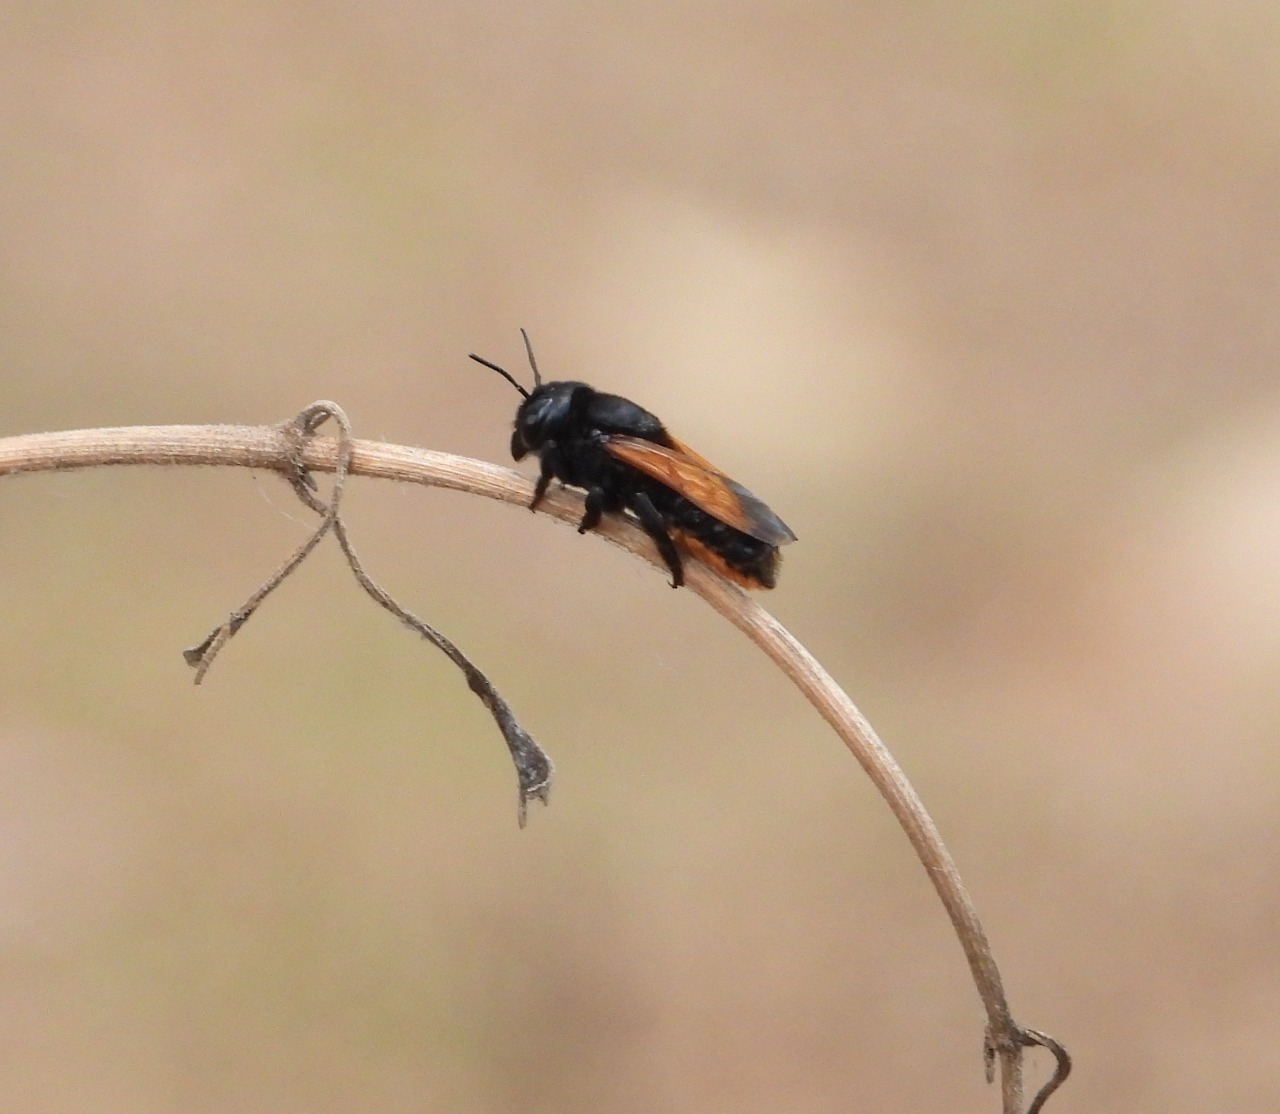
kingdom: Animalia
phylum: Arthropoda
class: Insecta
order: Hymenoptera
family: Megachilidae
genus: Megachile
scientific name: Megachile atrata
